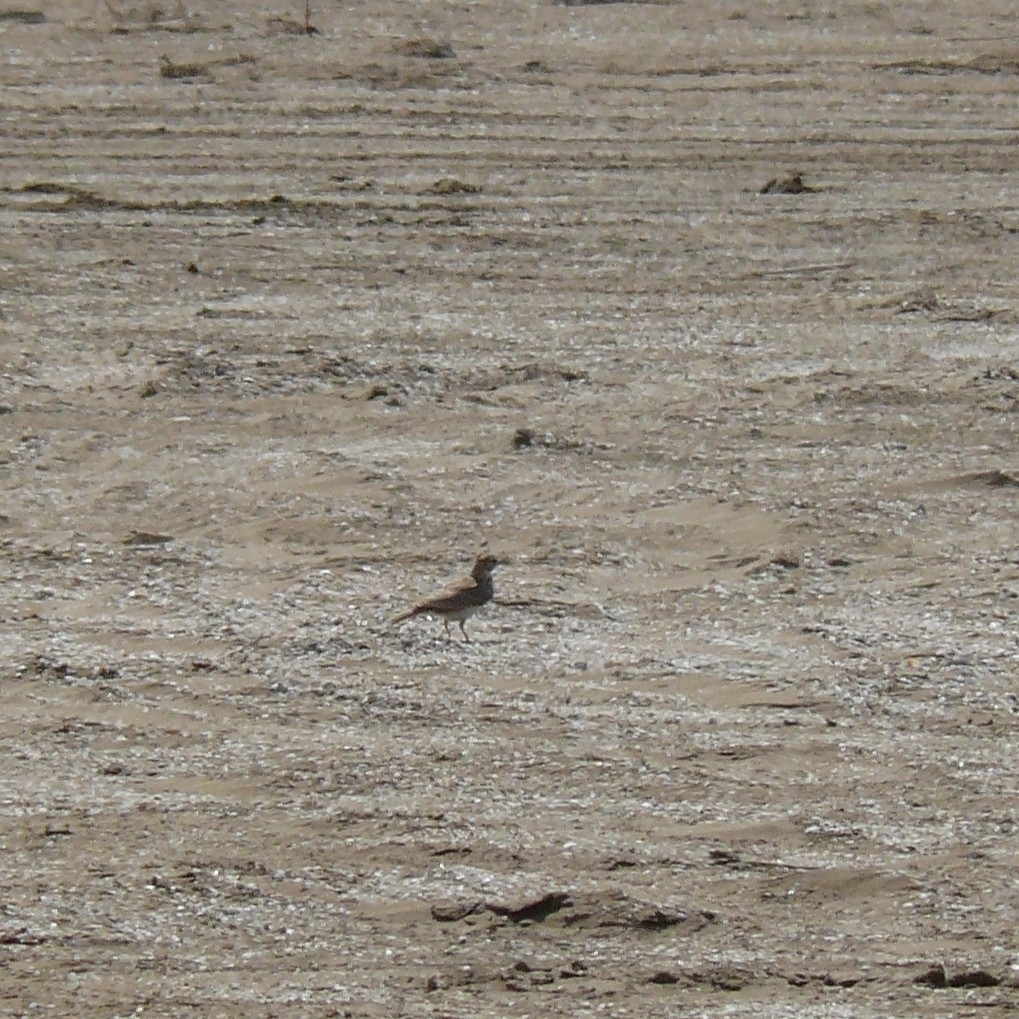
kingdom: Animalia
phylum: Chordata
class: Aves
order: Passeriformes
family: Alaudidae
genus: Galerida
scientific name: Galerida cristata
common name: Crested lark
